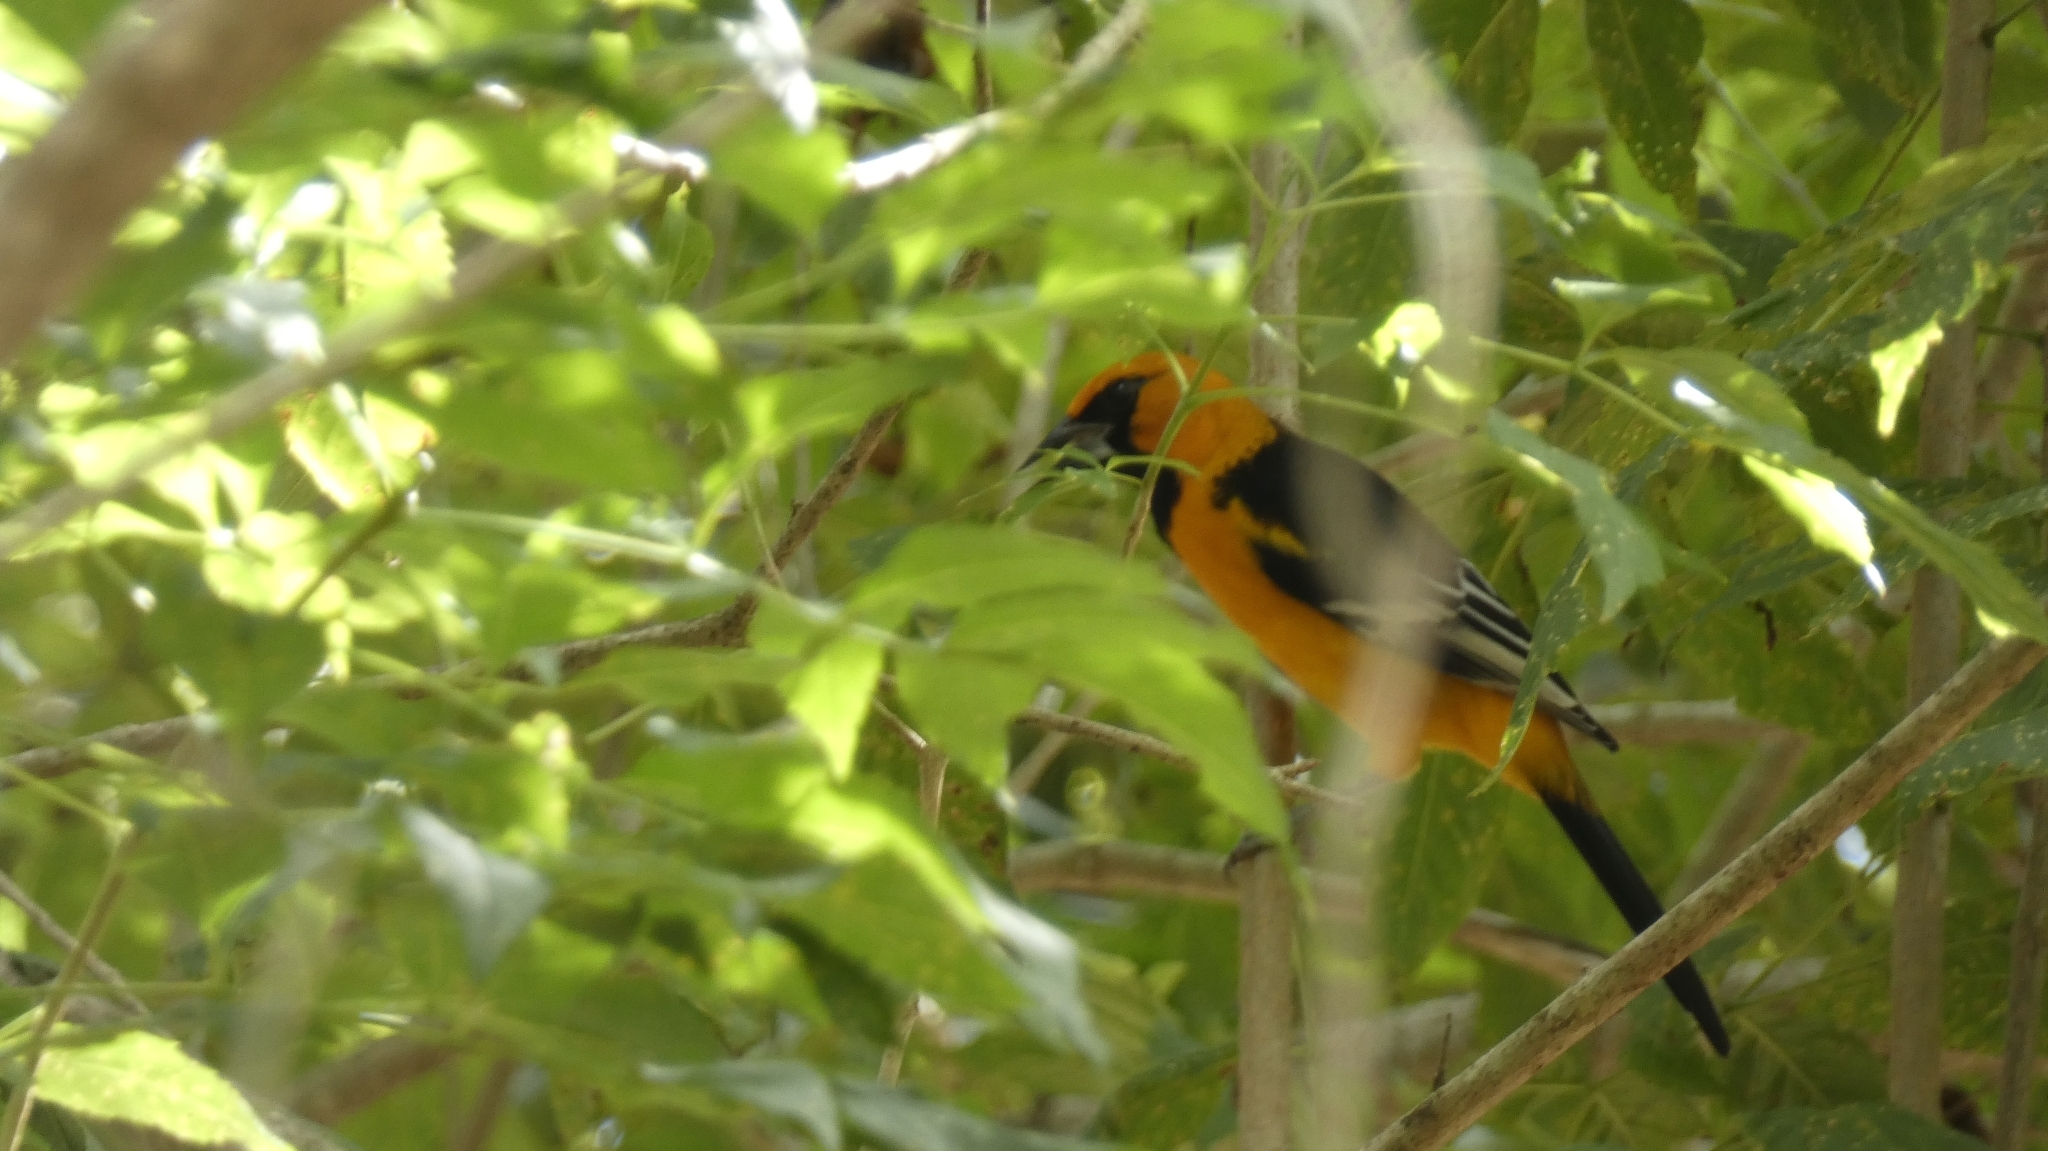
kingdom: Animalia
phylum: Chordata
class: Aves
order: Passeriformes
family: Icteridae
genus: Icterus
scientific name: Icterus gularis
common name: Altamira oriole
